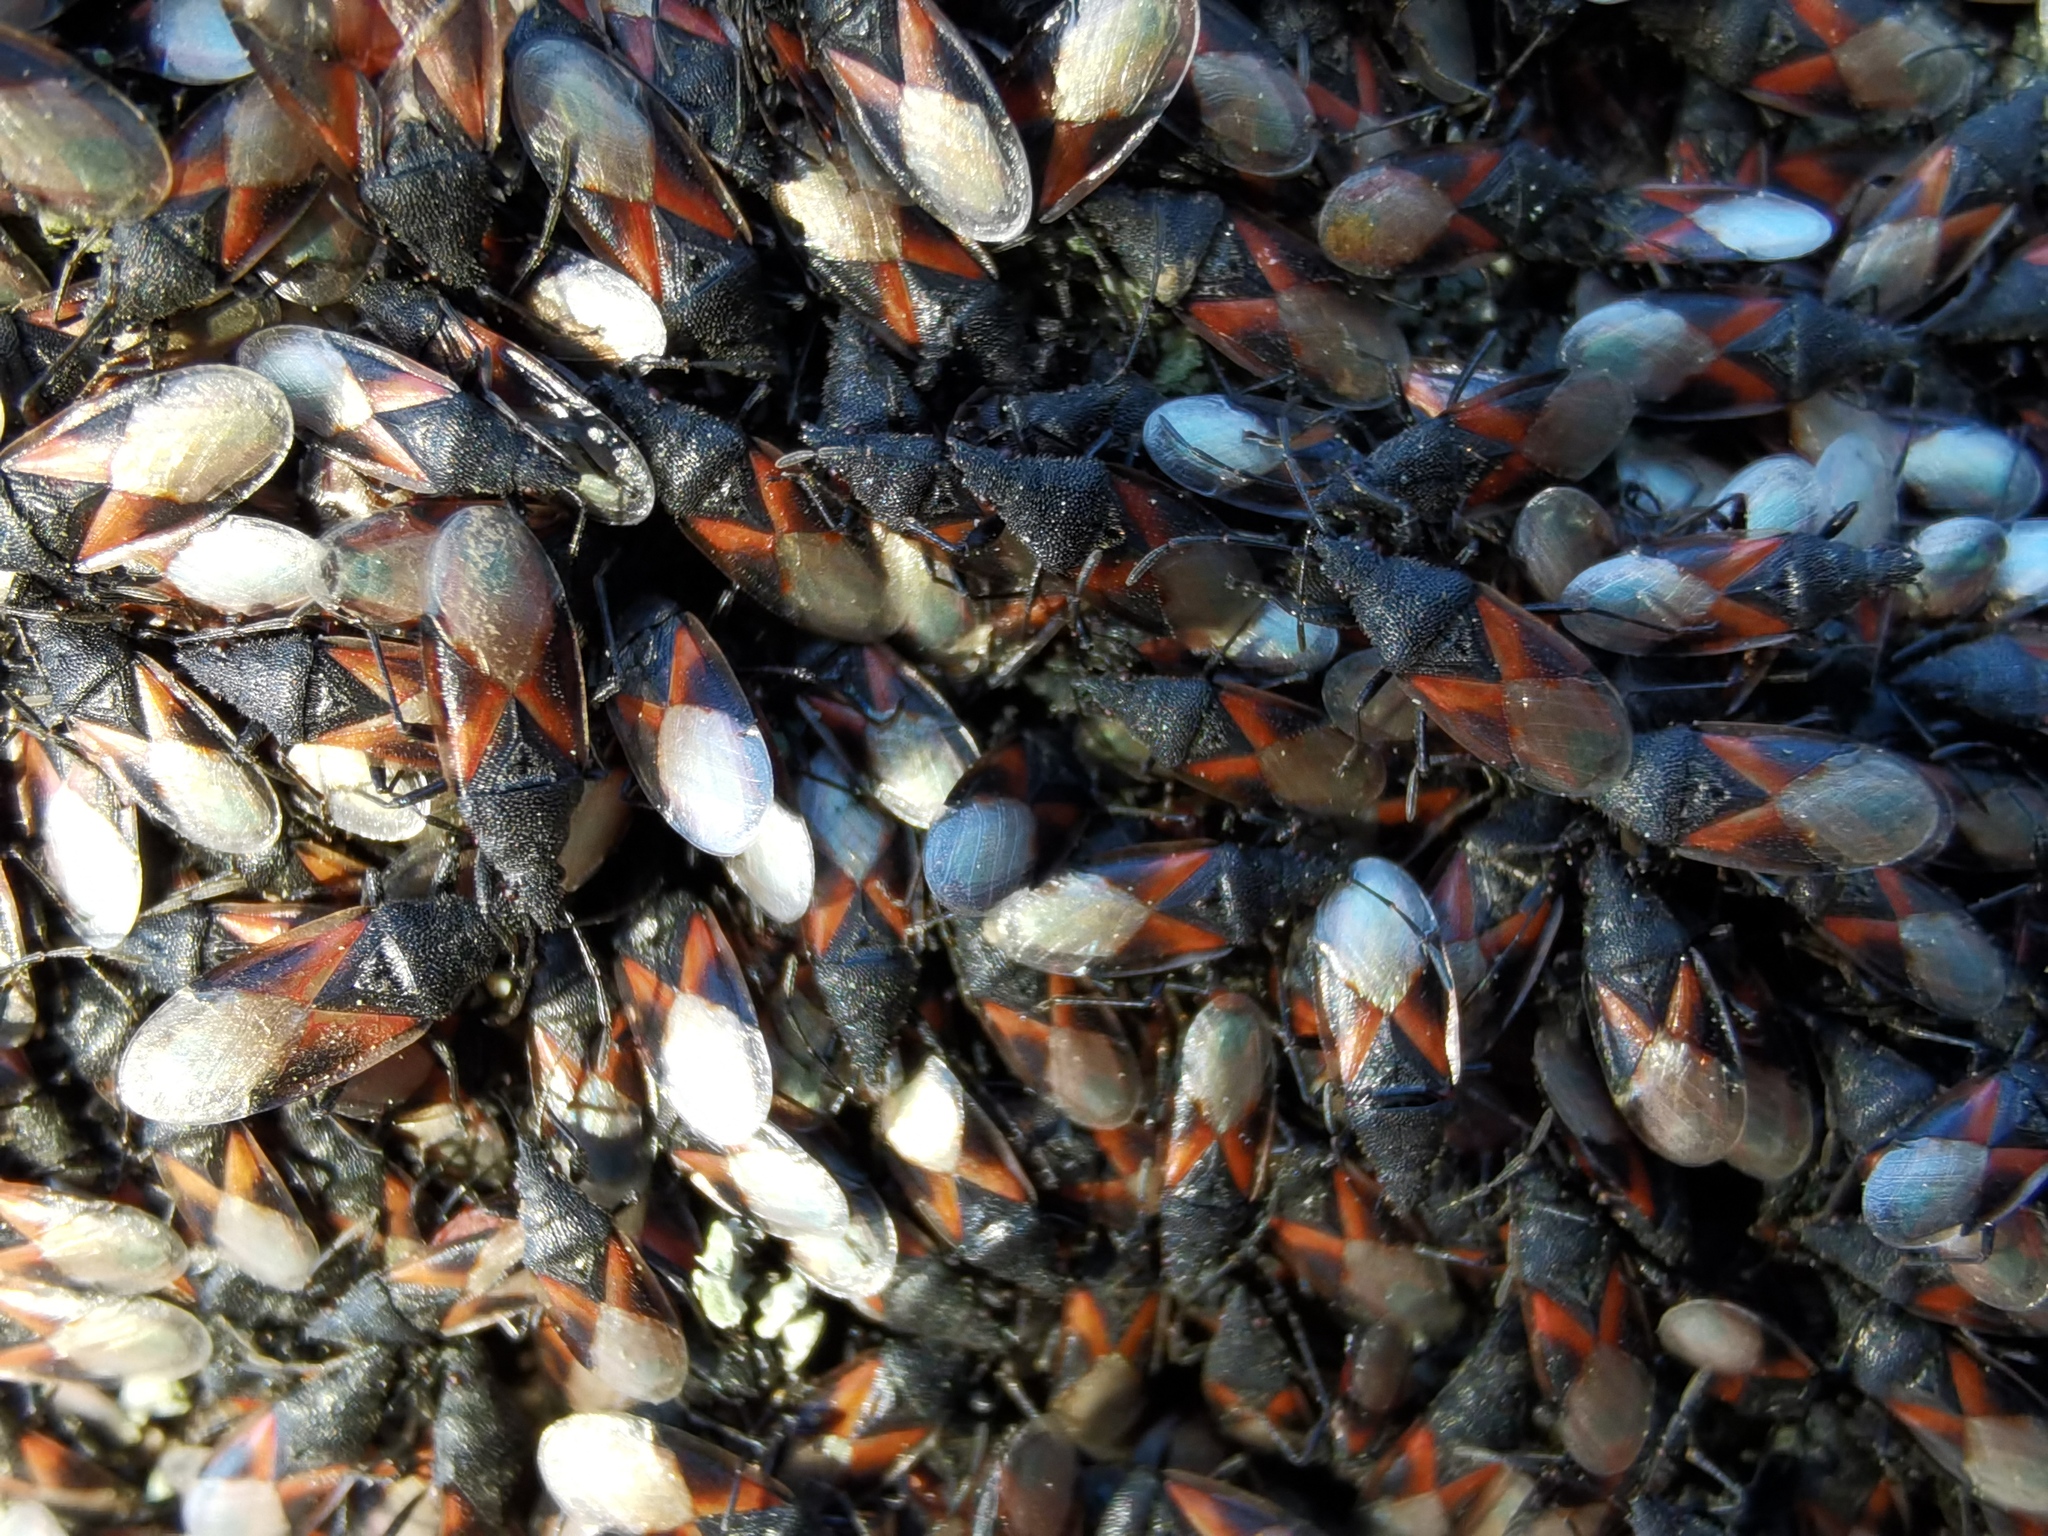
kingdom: Animalia
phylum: Arthropoda
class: Insecta
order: Hemiptera
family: Oxycarenidae
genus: Oxycarenus
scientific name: Oxycarenus lavaterae
